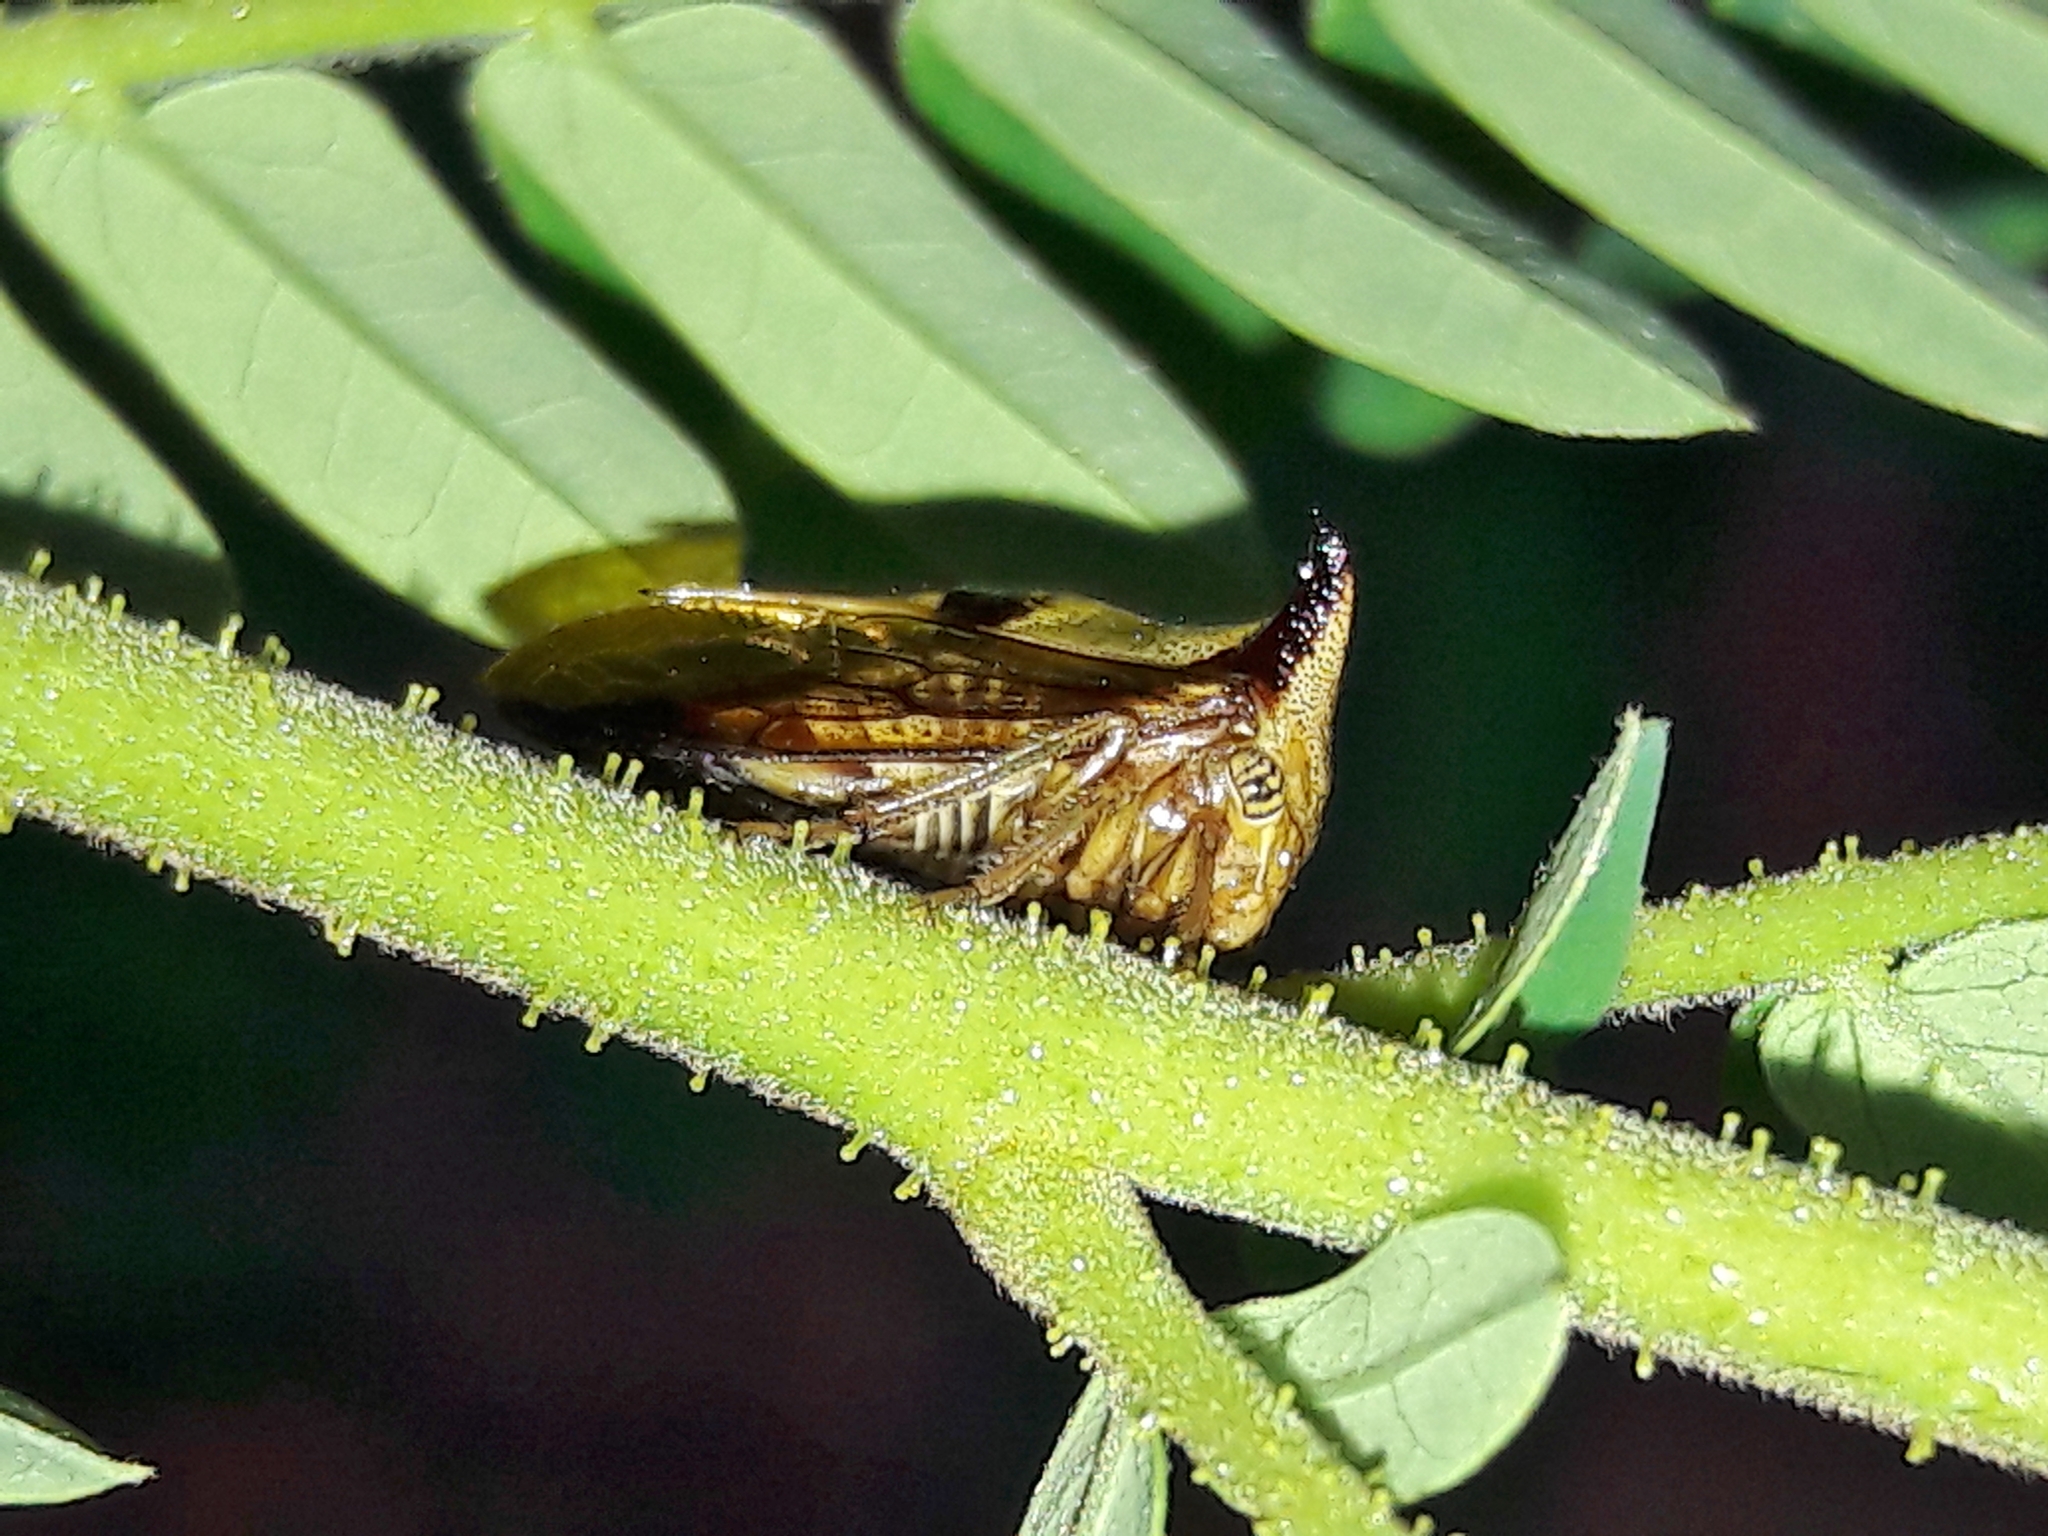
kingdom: Animalia
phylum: Arthropoda
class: Insecta
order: Hemiptera
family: Membracidae
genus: Ceresa
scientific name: Ceresa ustulata
